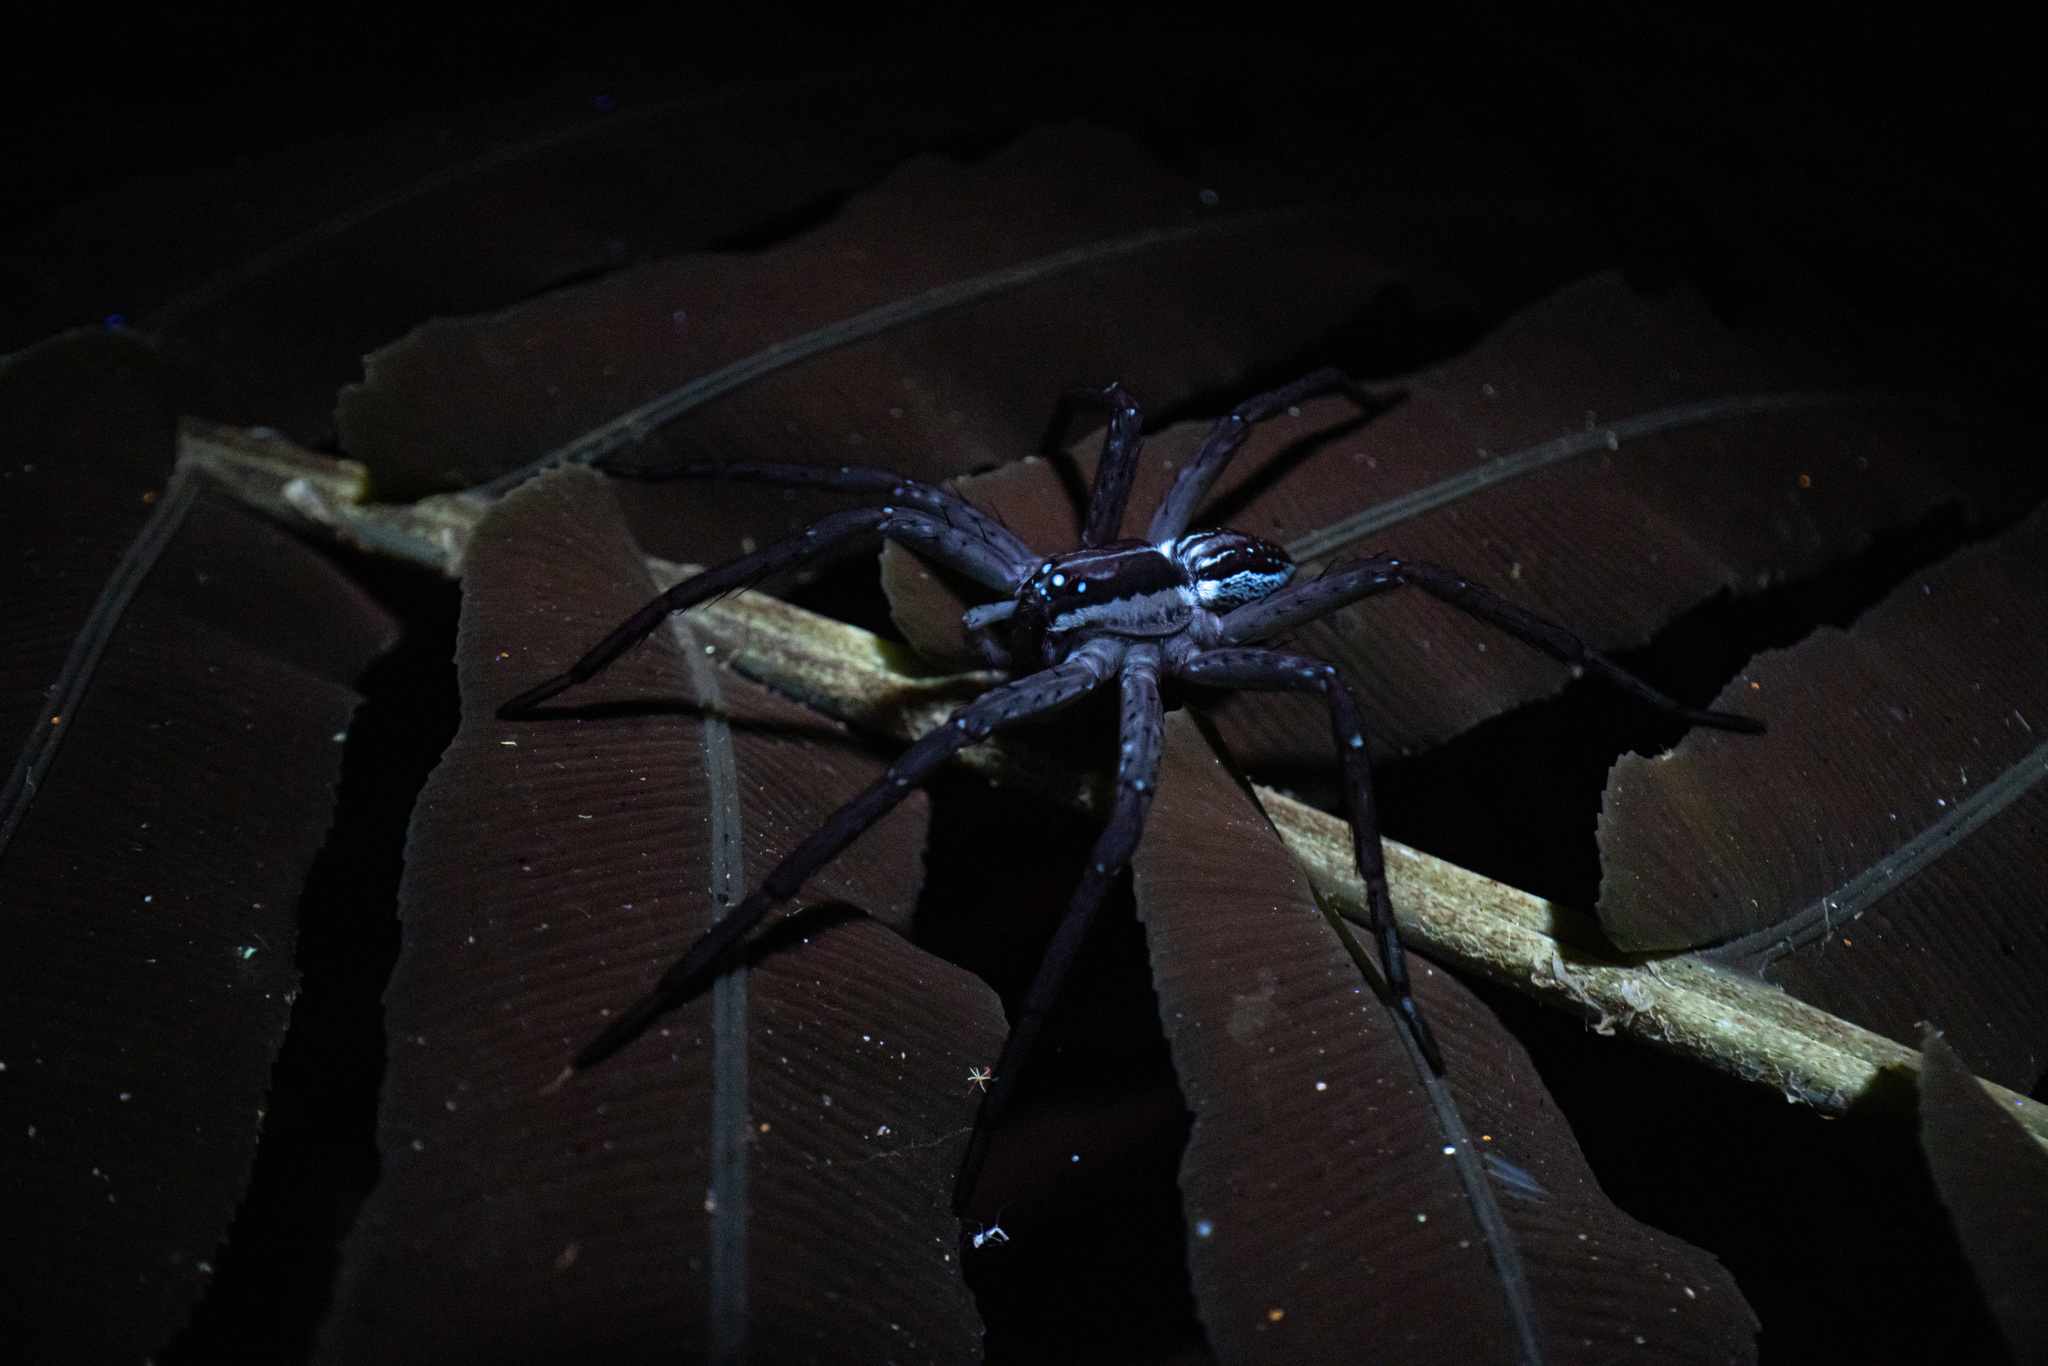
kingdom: Animalia
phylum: Arthropoda
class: Arachnida
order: Araneae
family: Pisauridae
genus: Dolomedes
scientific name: Dolomedes minor
